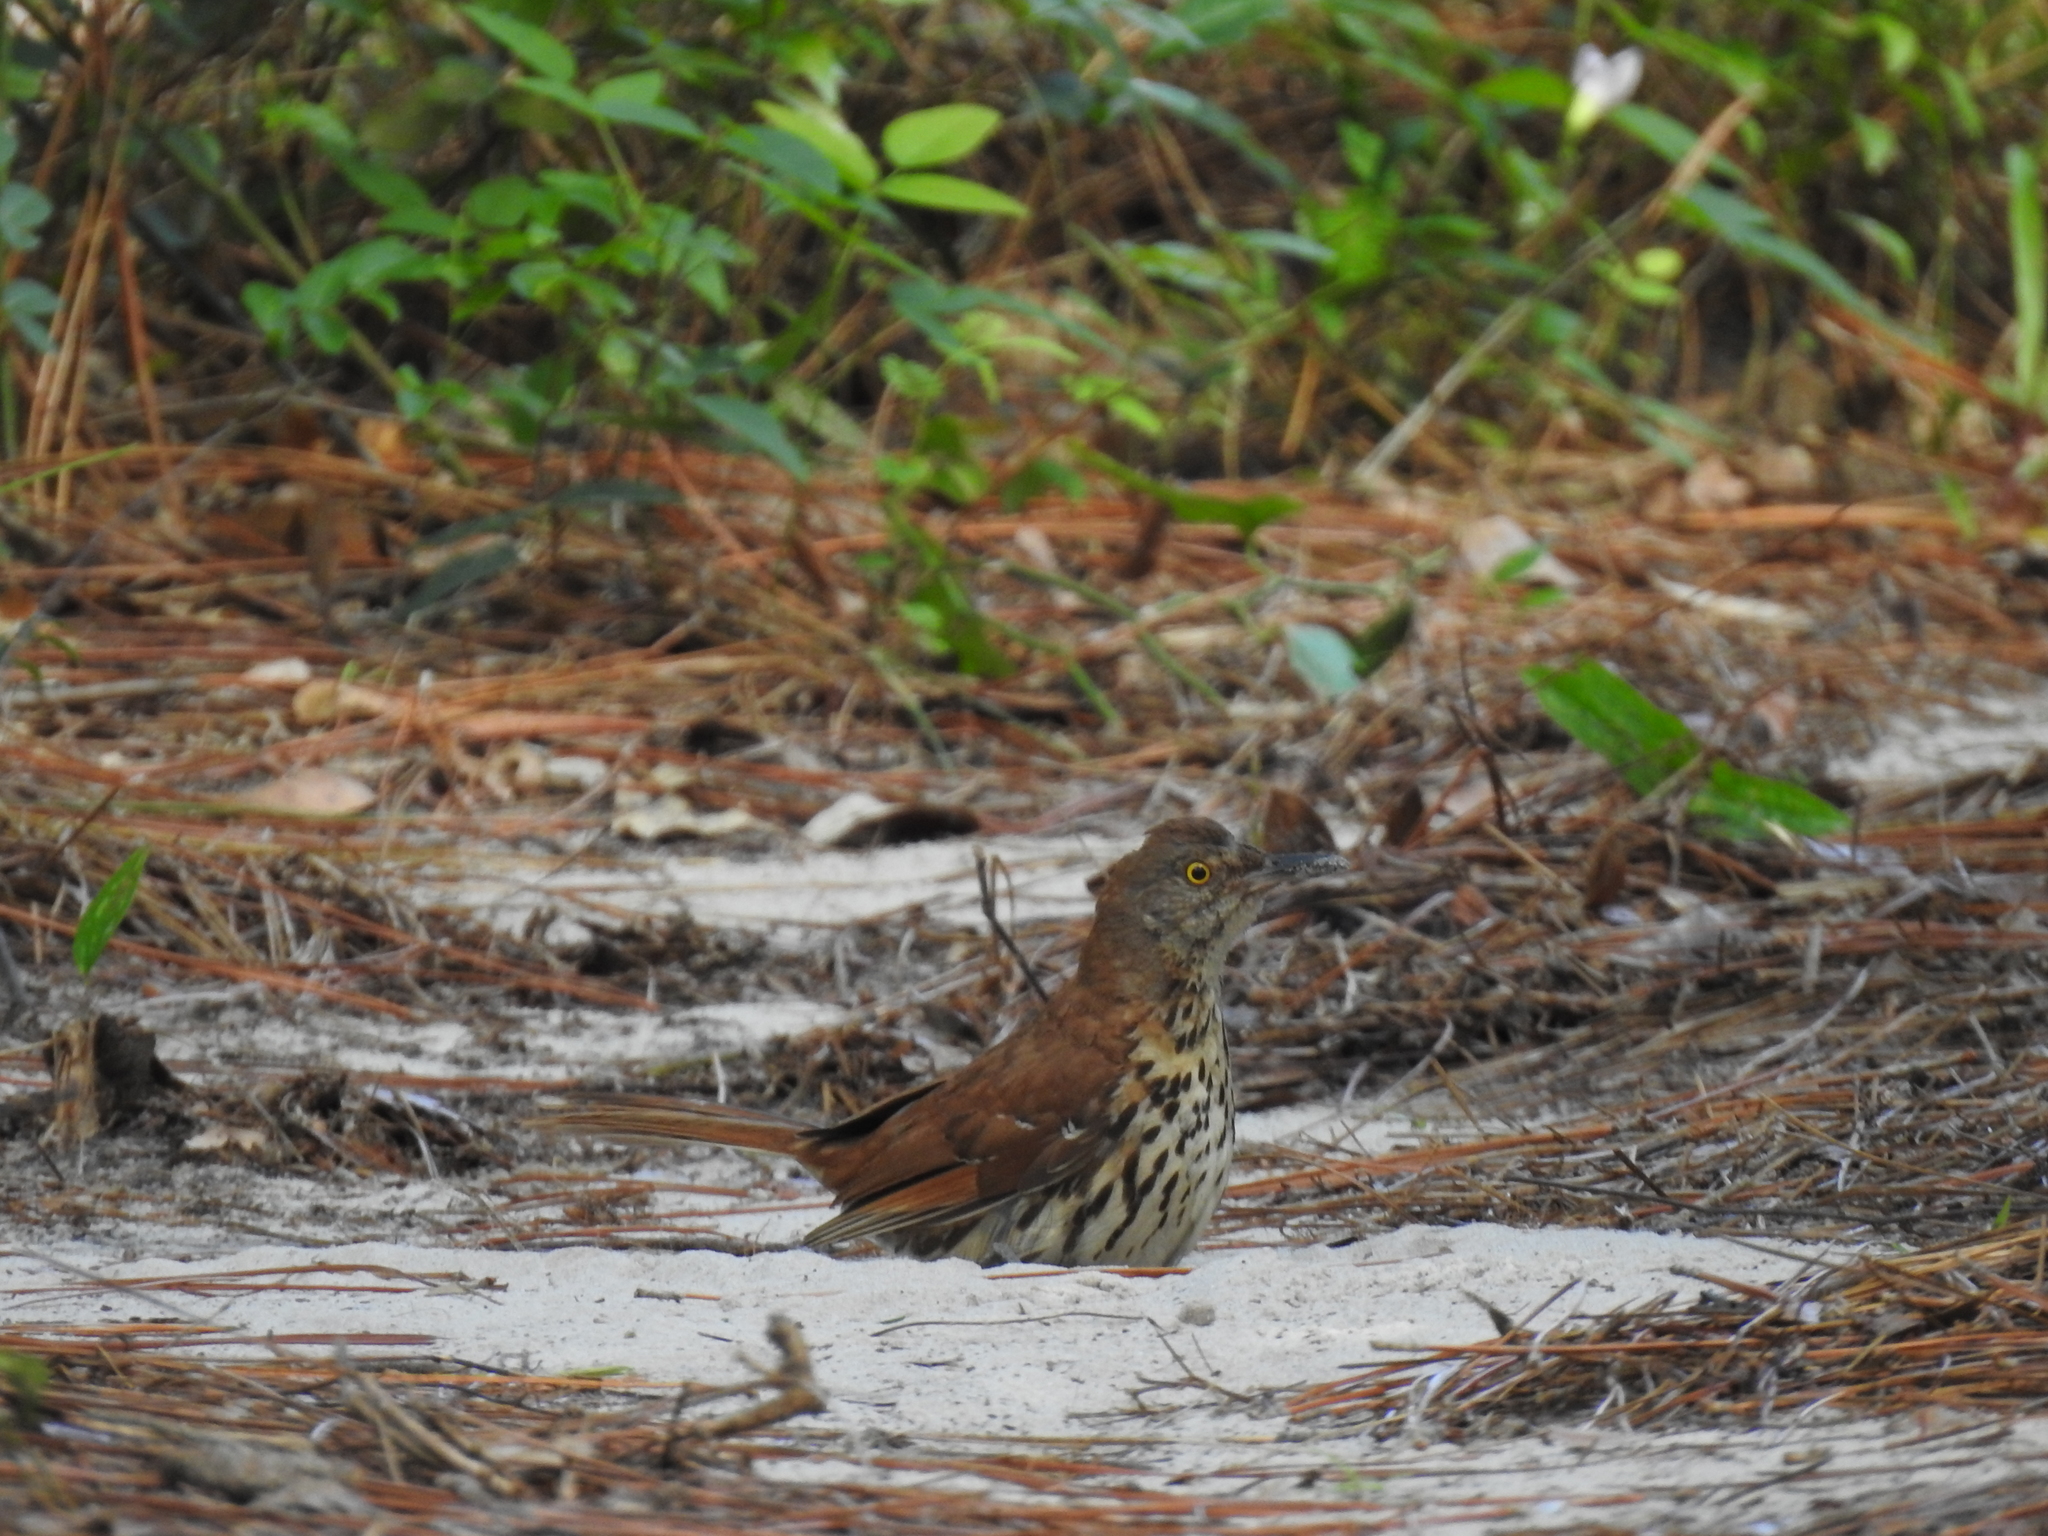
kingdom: Animalia
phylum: Chordata
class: Aves
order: Passeriformes
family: Mimidae
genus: Toxostoma
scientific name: Toxostoma rufum
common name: Brown thrasher
